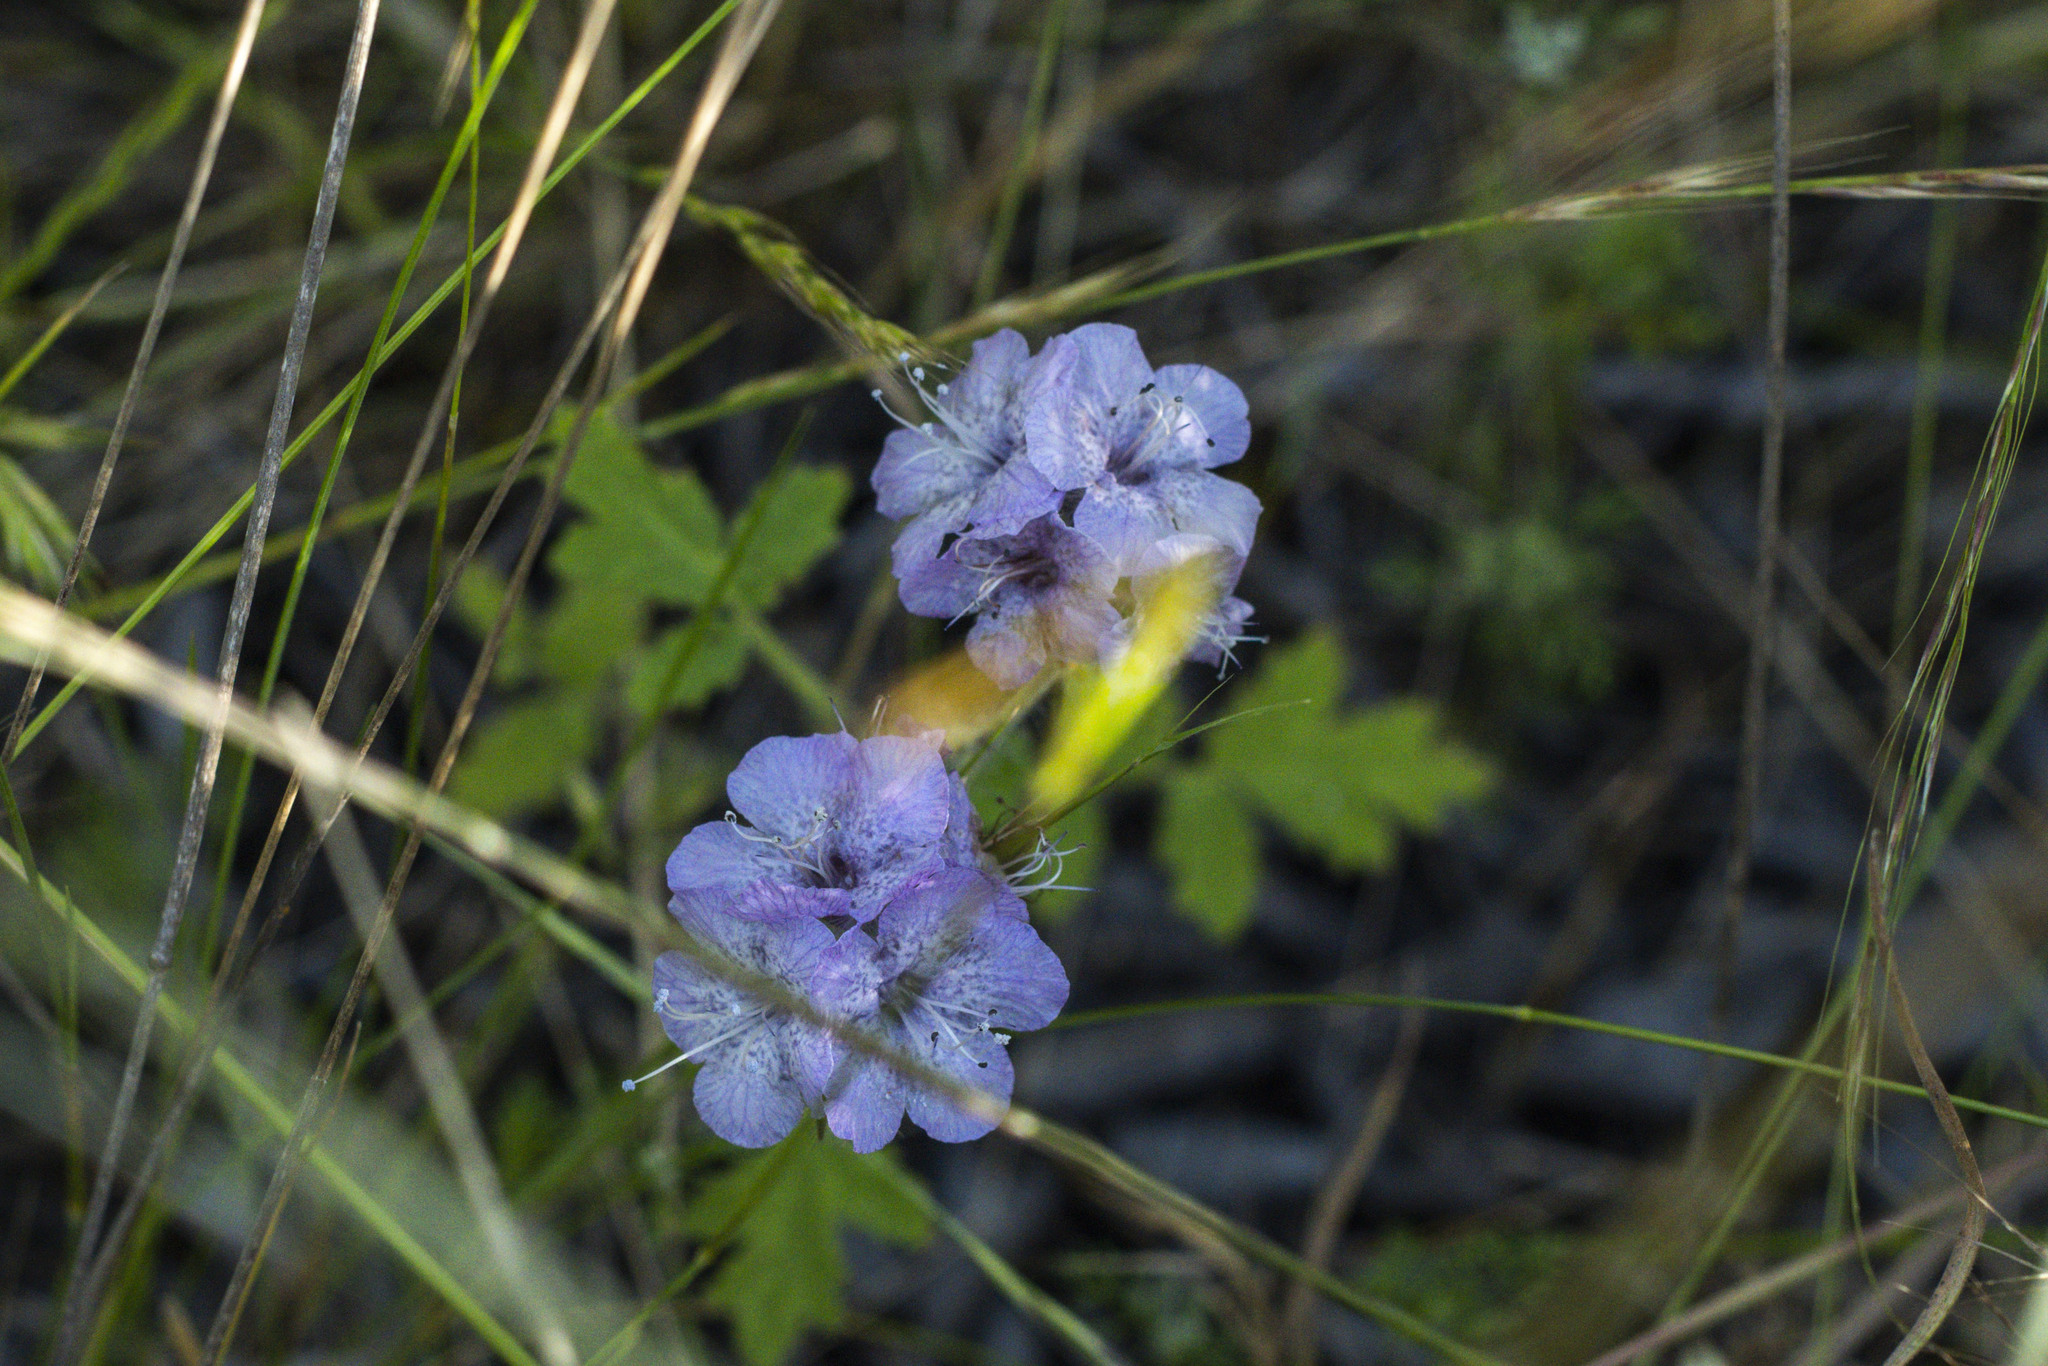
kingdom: Plantae
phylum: Tracheophyta
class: Magnoliopsida
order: Boraginales
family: Hydrophyllaceae
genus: Phacelia
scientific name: Phacelia cicutaria
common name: Caterpillar phacelia
